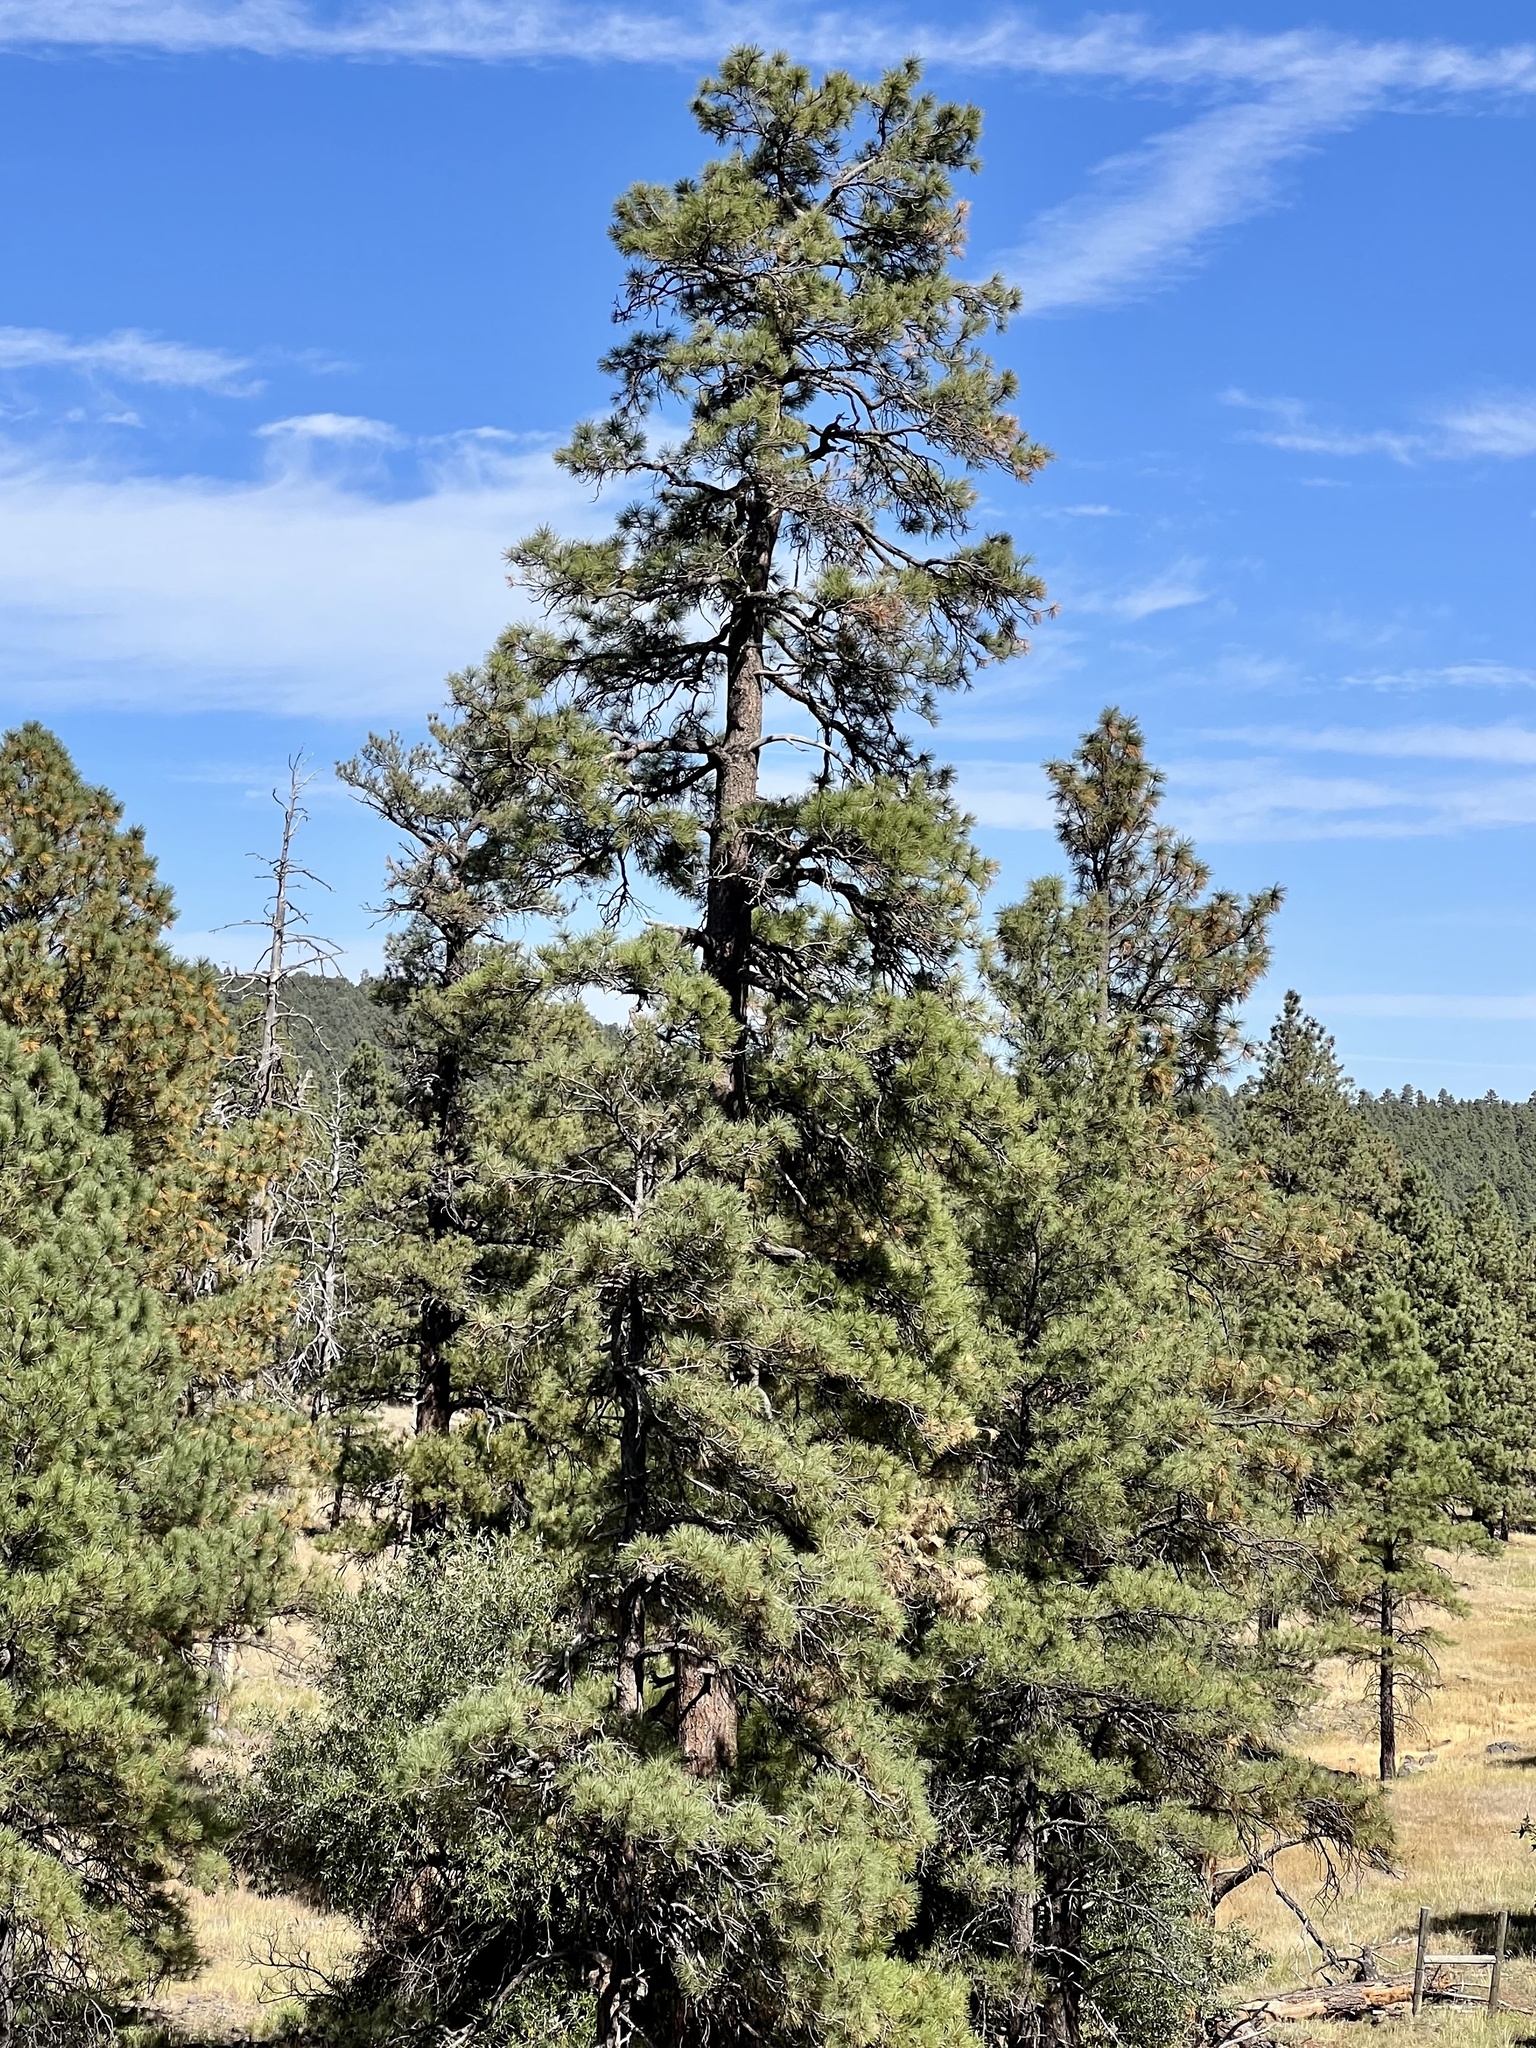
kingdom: Plantae
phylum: Tracheophyta
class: Pinopsida
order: Pinales
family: Pinaceae
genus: Pinus
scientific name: Pinus ponderosa
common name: Western yellow-pine
